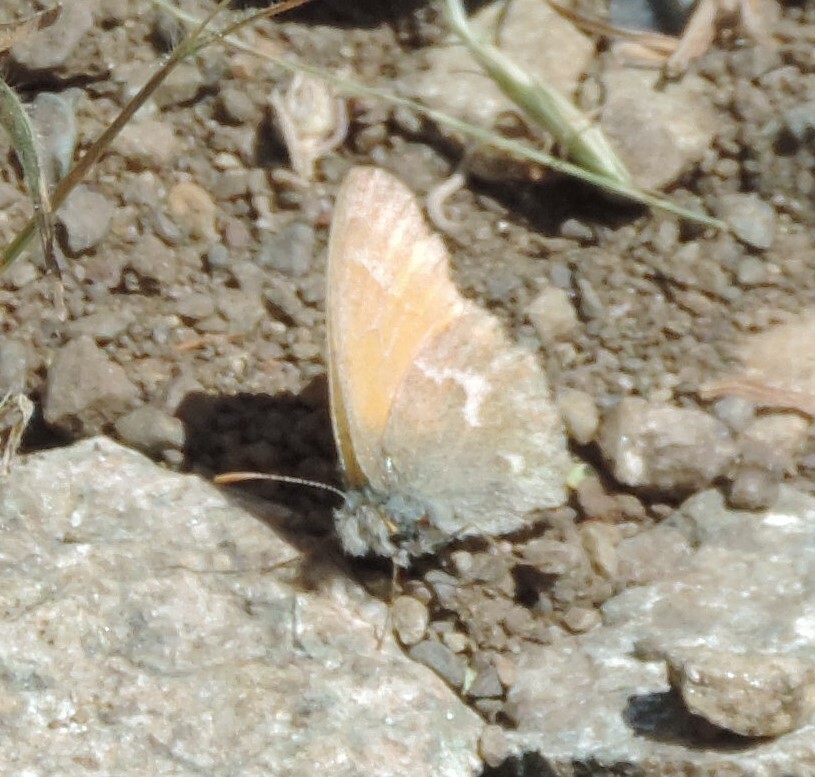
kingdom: Animalia
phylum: Arthropoda
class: Insecta
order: Lepidoptera
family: Nymphalidae
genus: Coenonympha
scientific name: Coenonympha california
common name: Common ringlet
